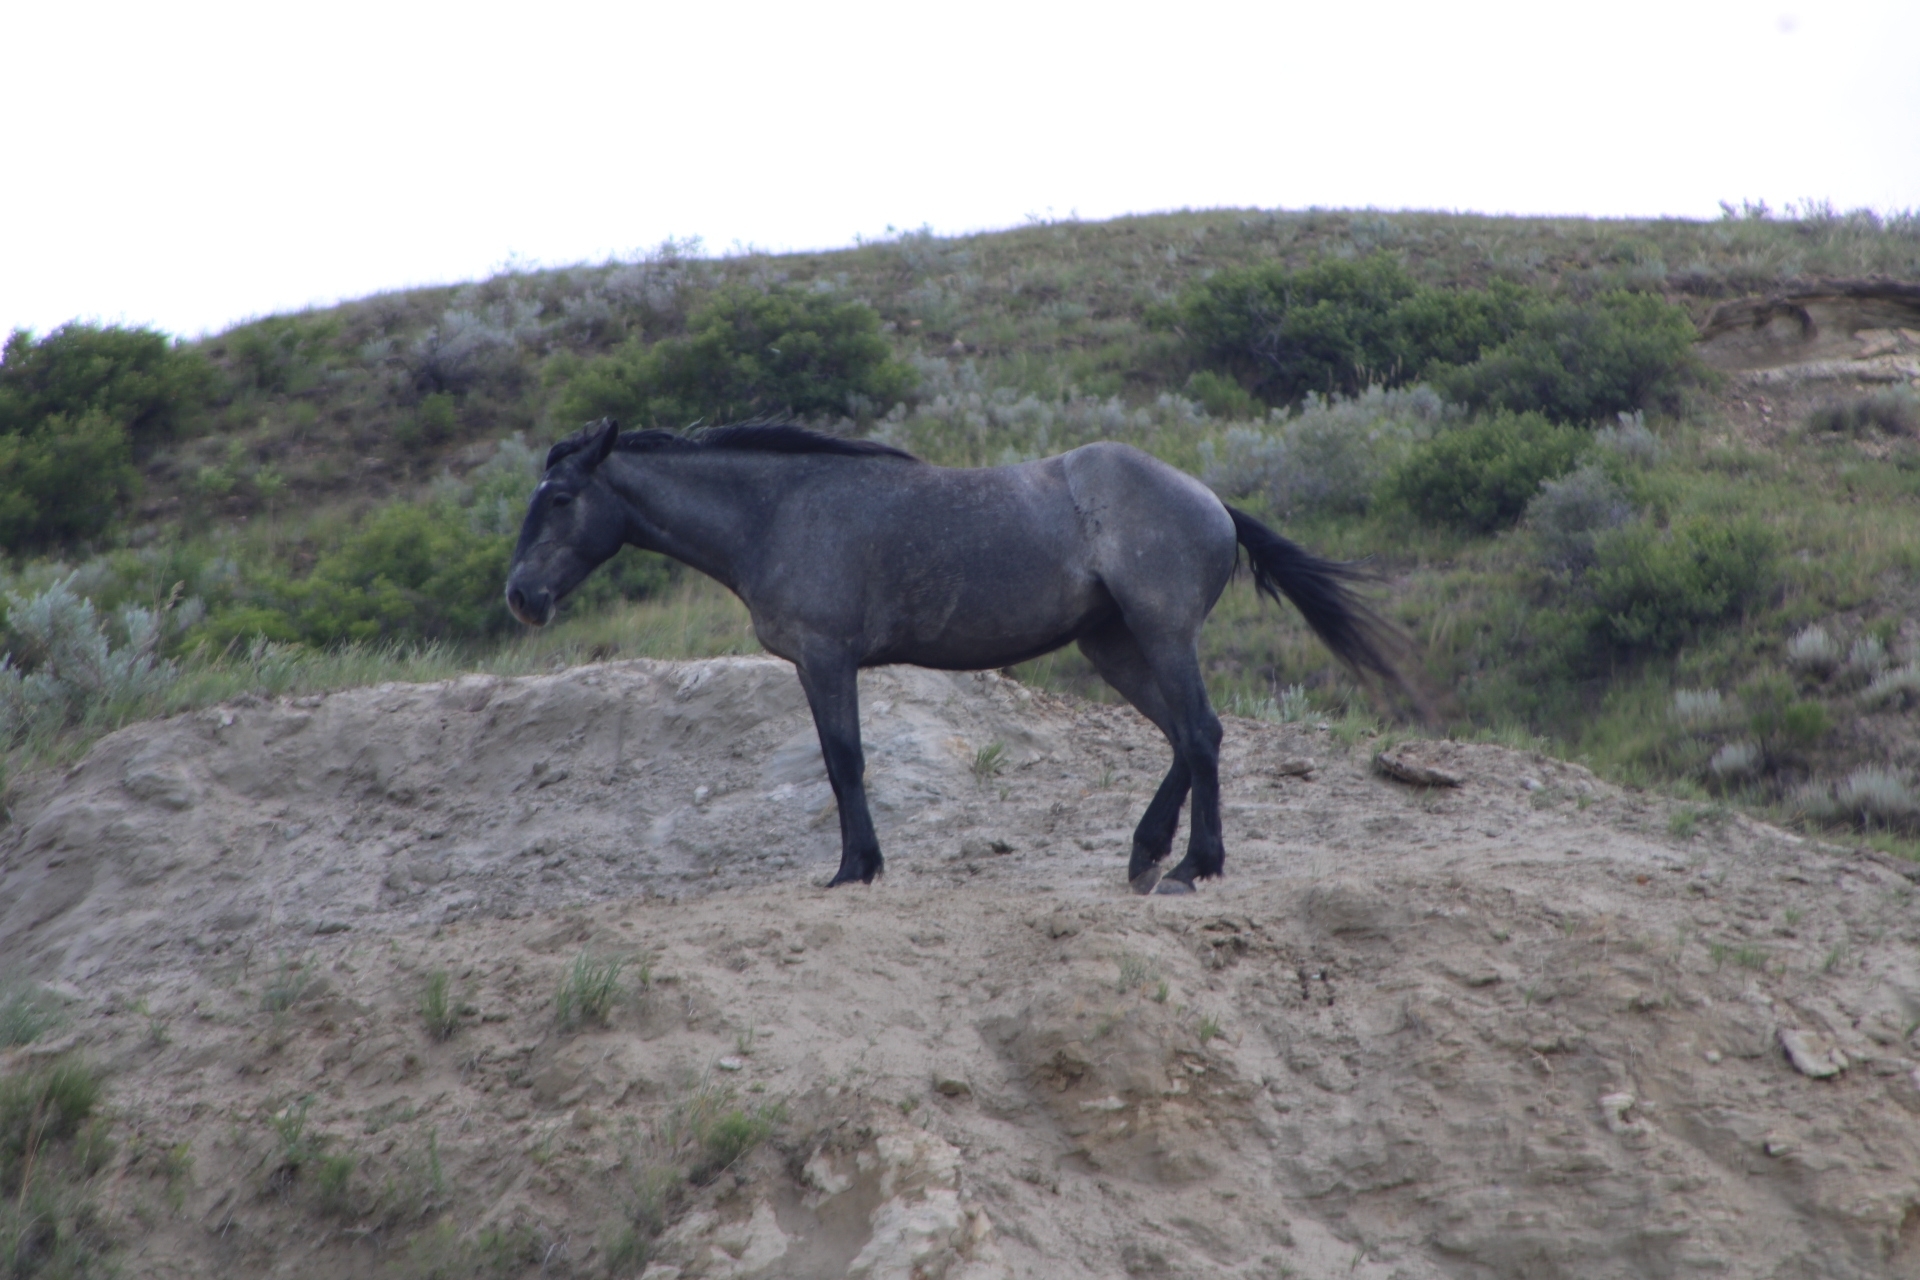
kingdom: Animalia
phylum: Chordata
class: Mammalia
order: Perissodactyla
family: Equidae
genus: Equus
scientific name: Equus caballus
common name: Horse
